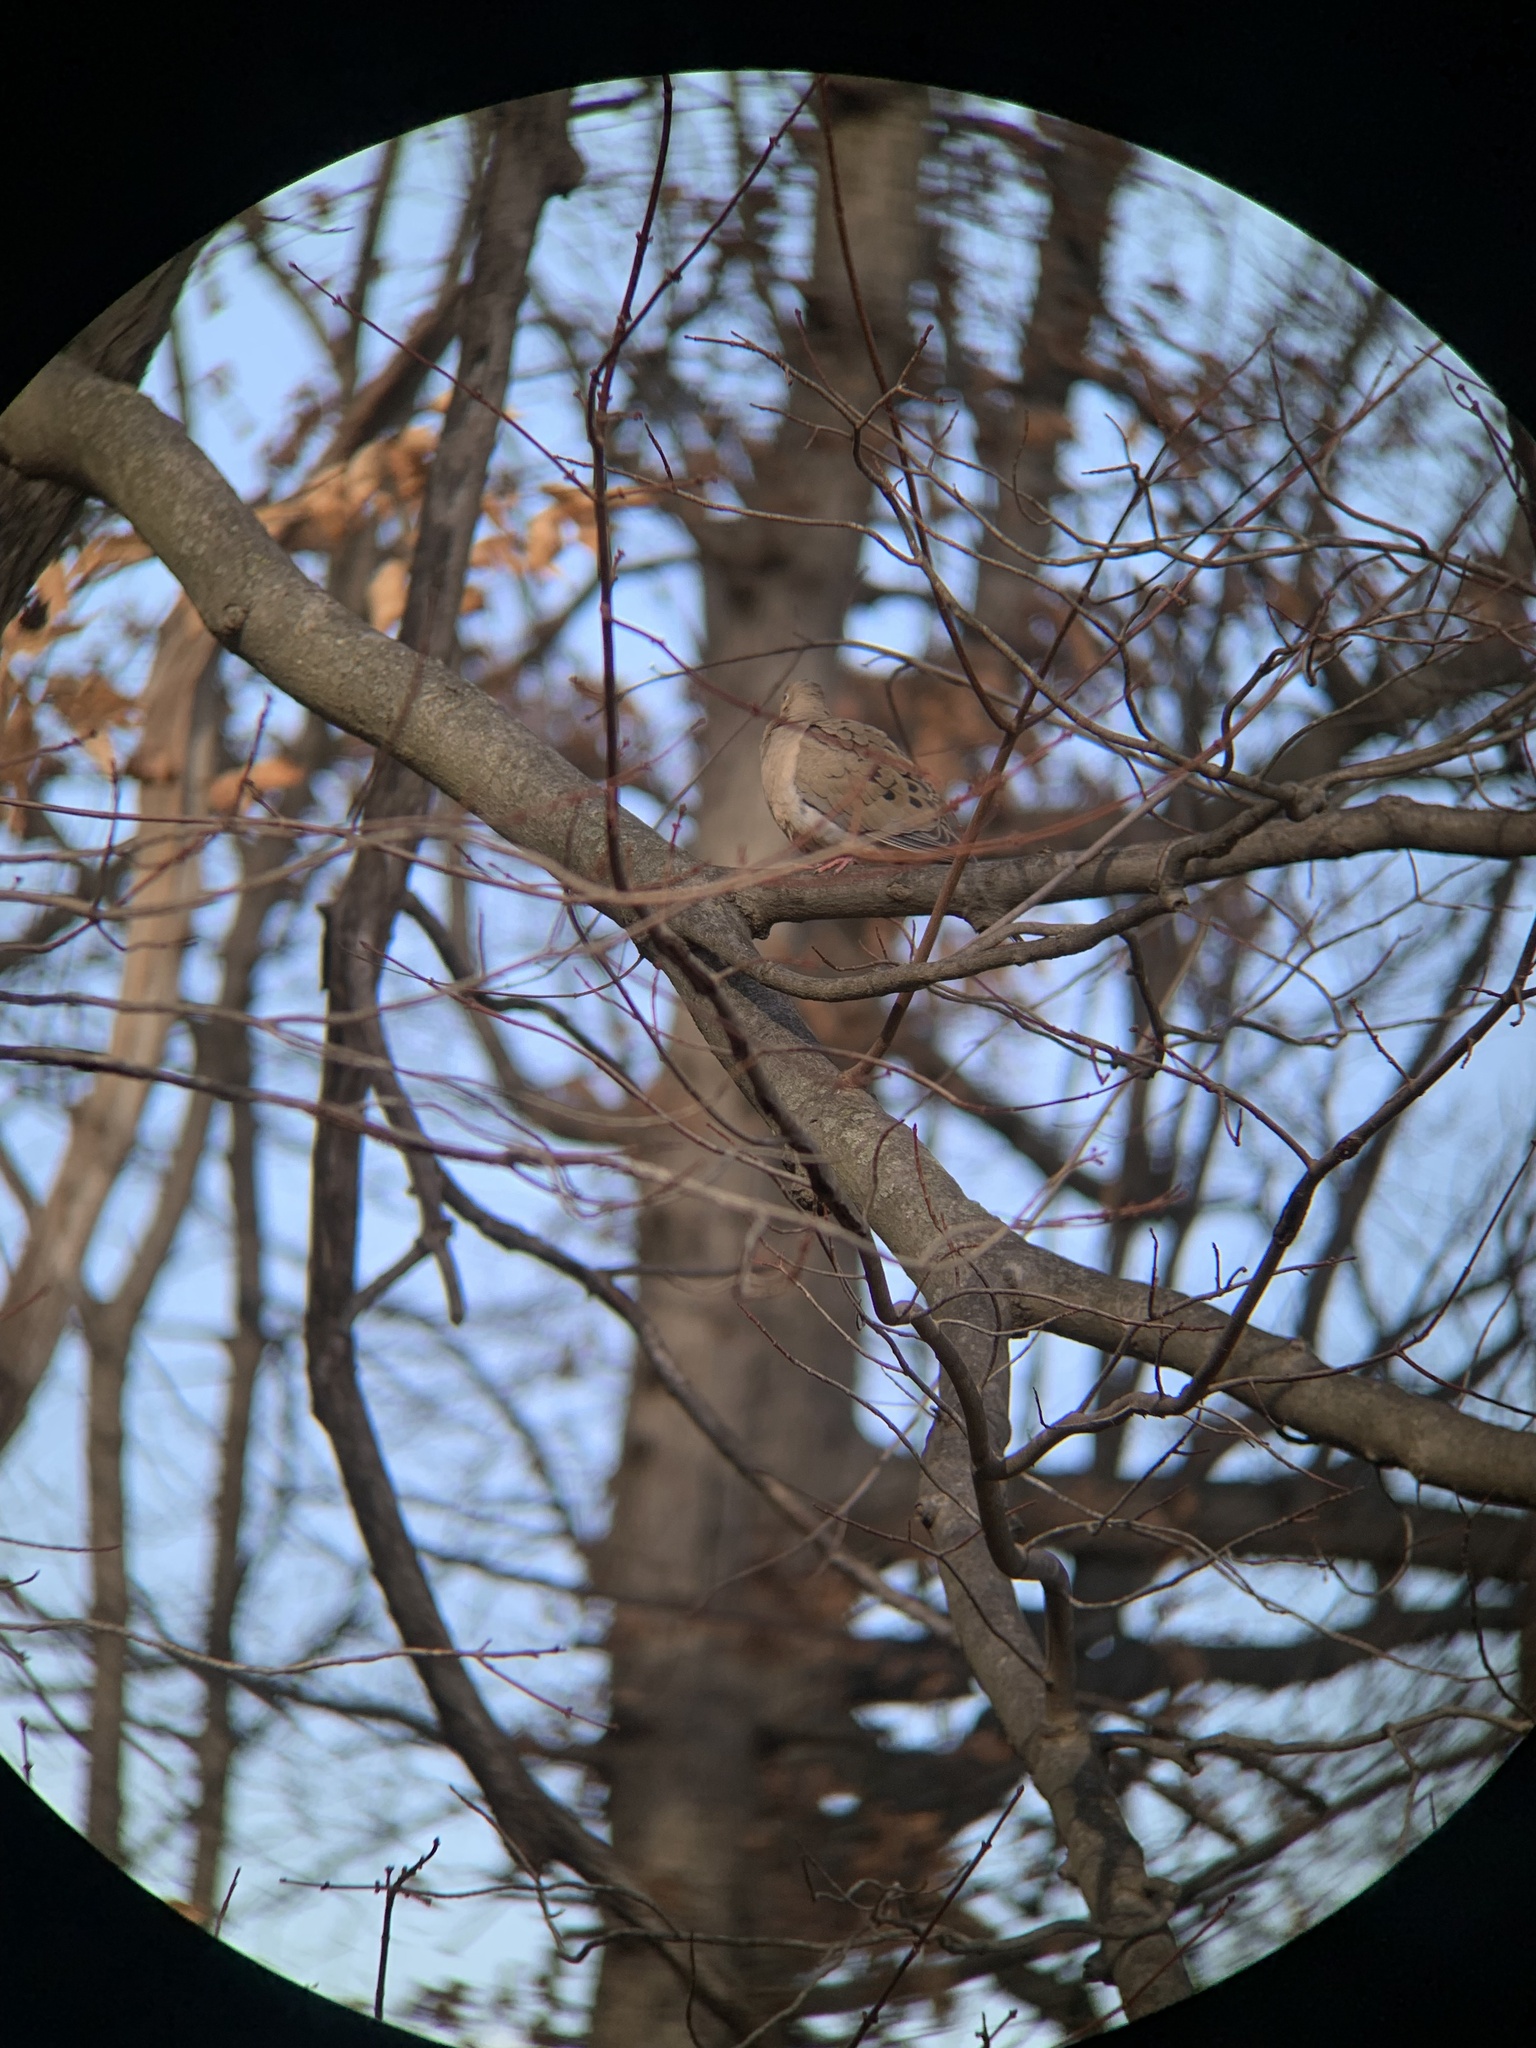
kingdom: Animalia
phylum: Chordata
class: Aves
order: Columbiformes
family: Columbidae
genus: Zenaida
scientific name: Zenaida macroura
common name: Mourning dove
